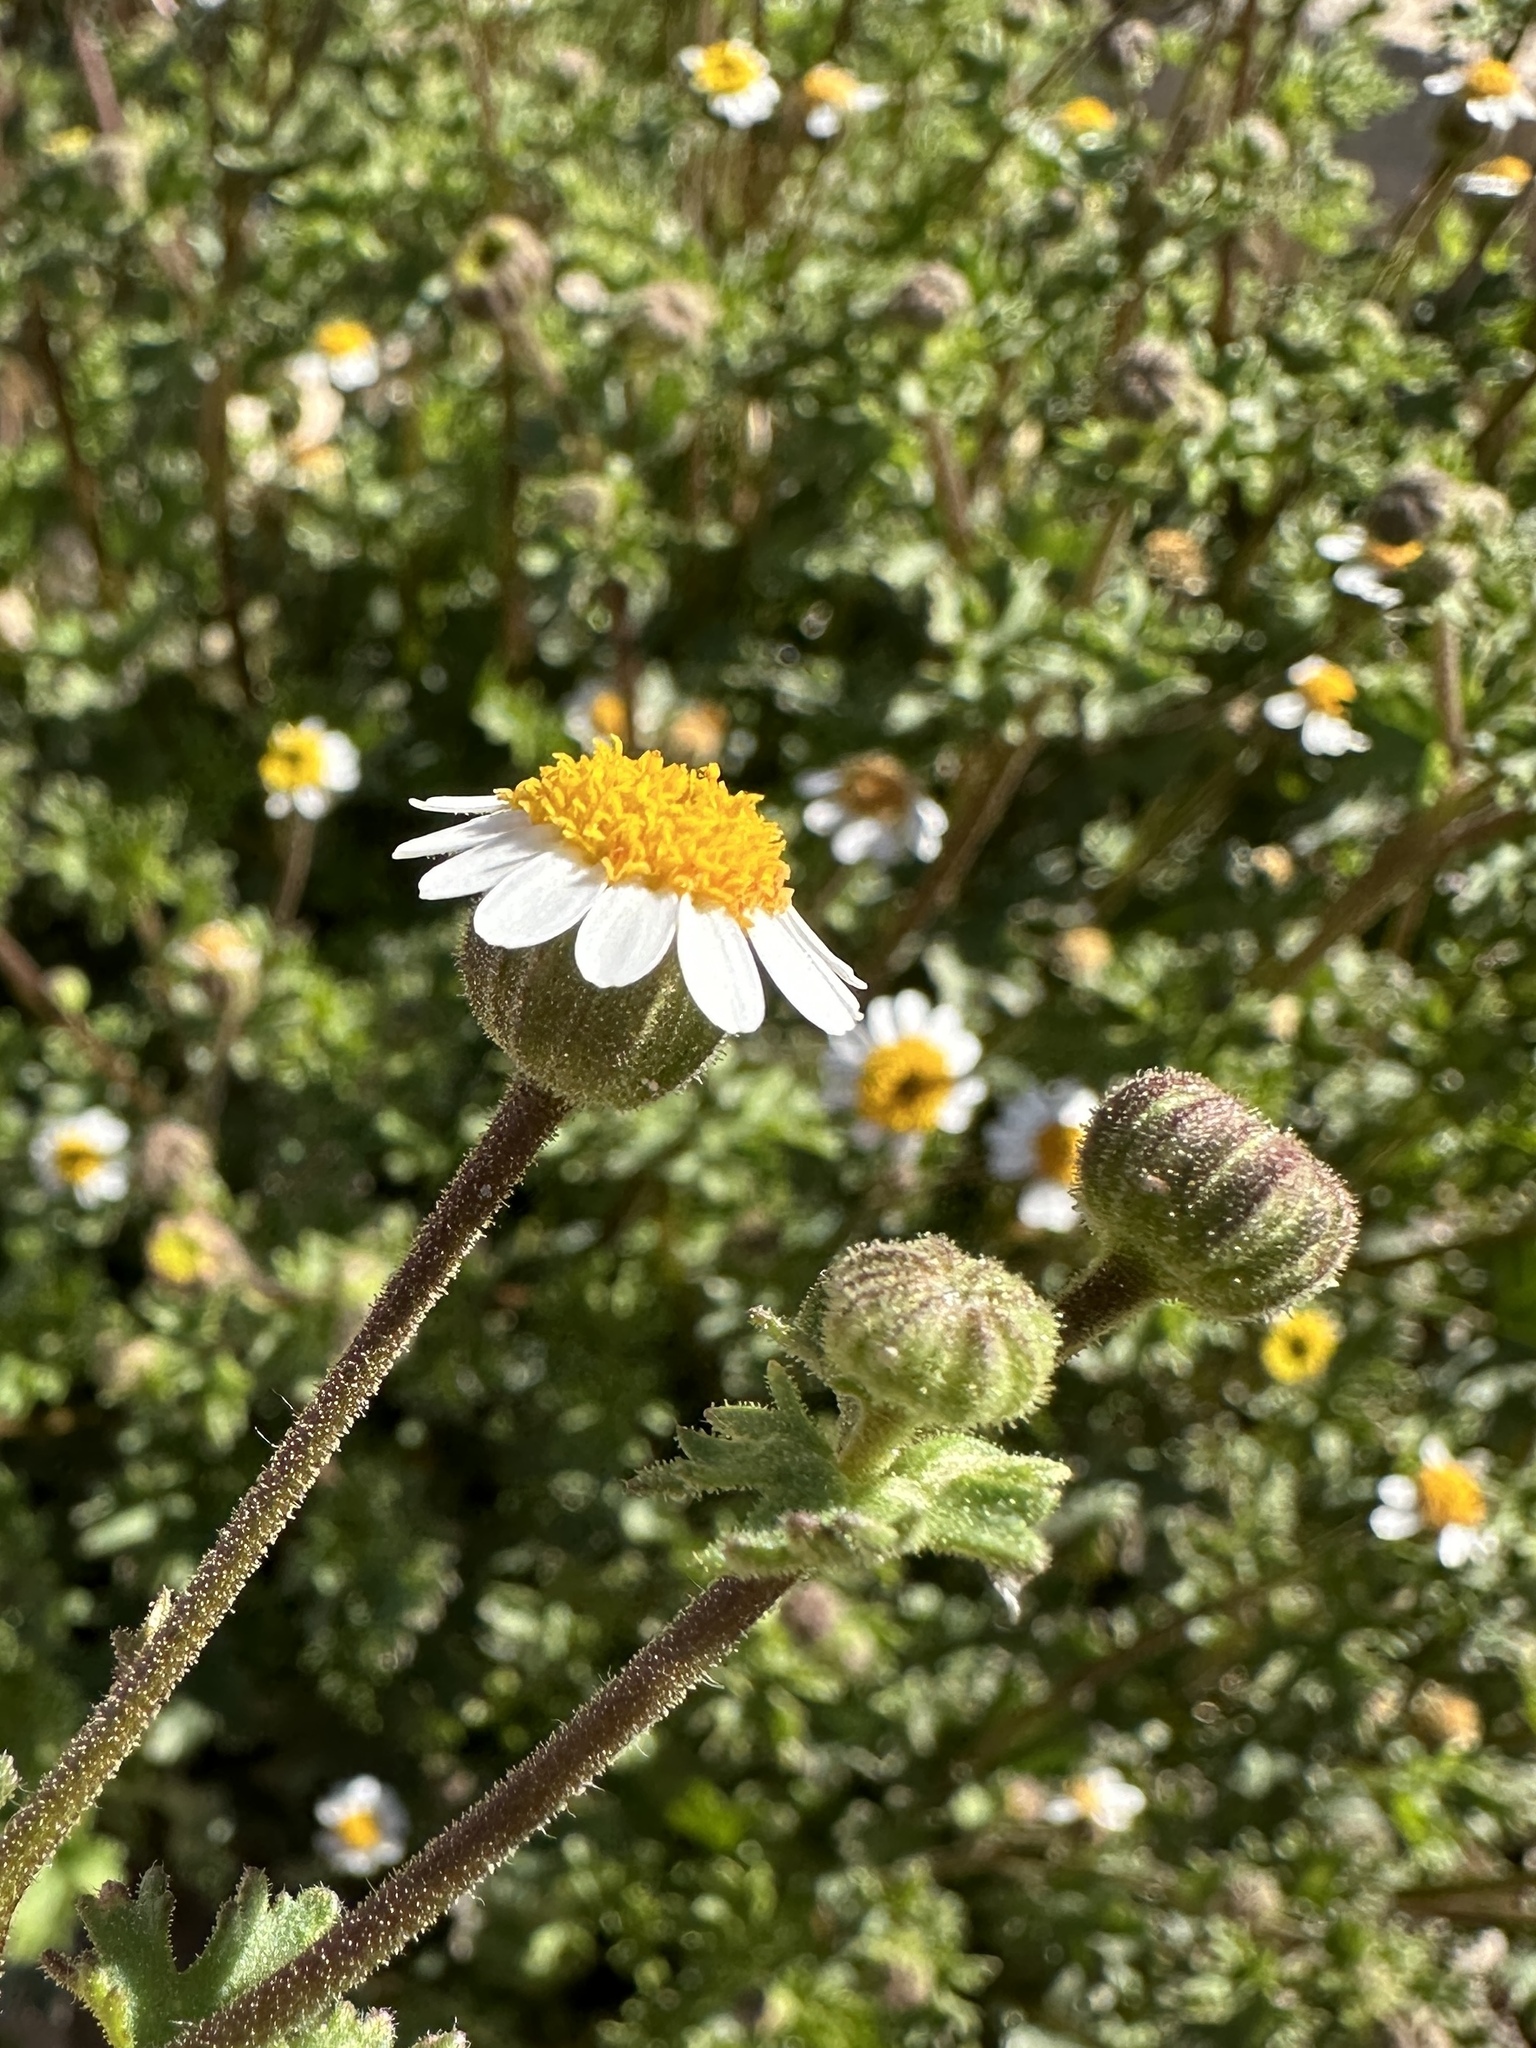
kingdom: Plantae
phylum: Tracheophyta
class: Magnoliopsida
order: Asterales
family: Asteraceae
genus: Laphamia
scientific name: Laphamia emoryi
